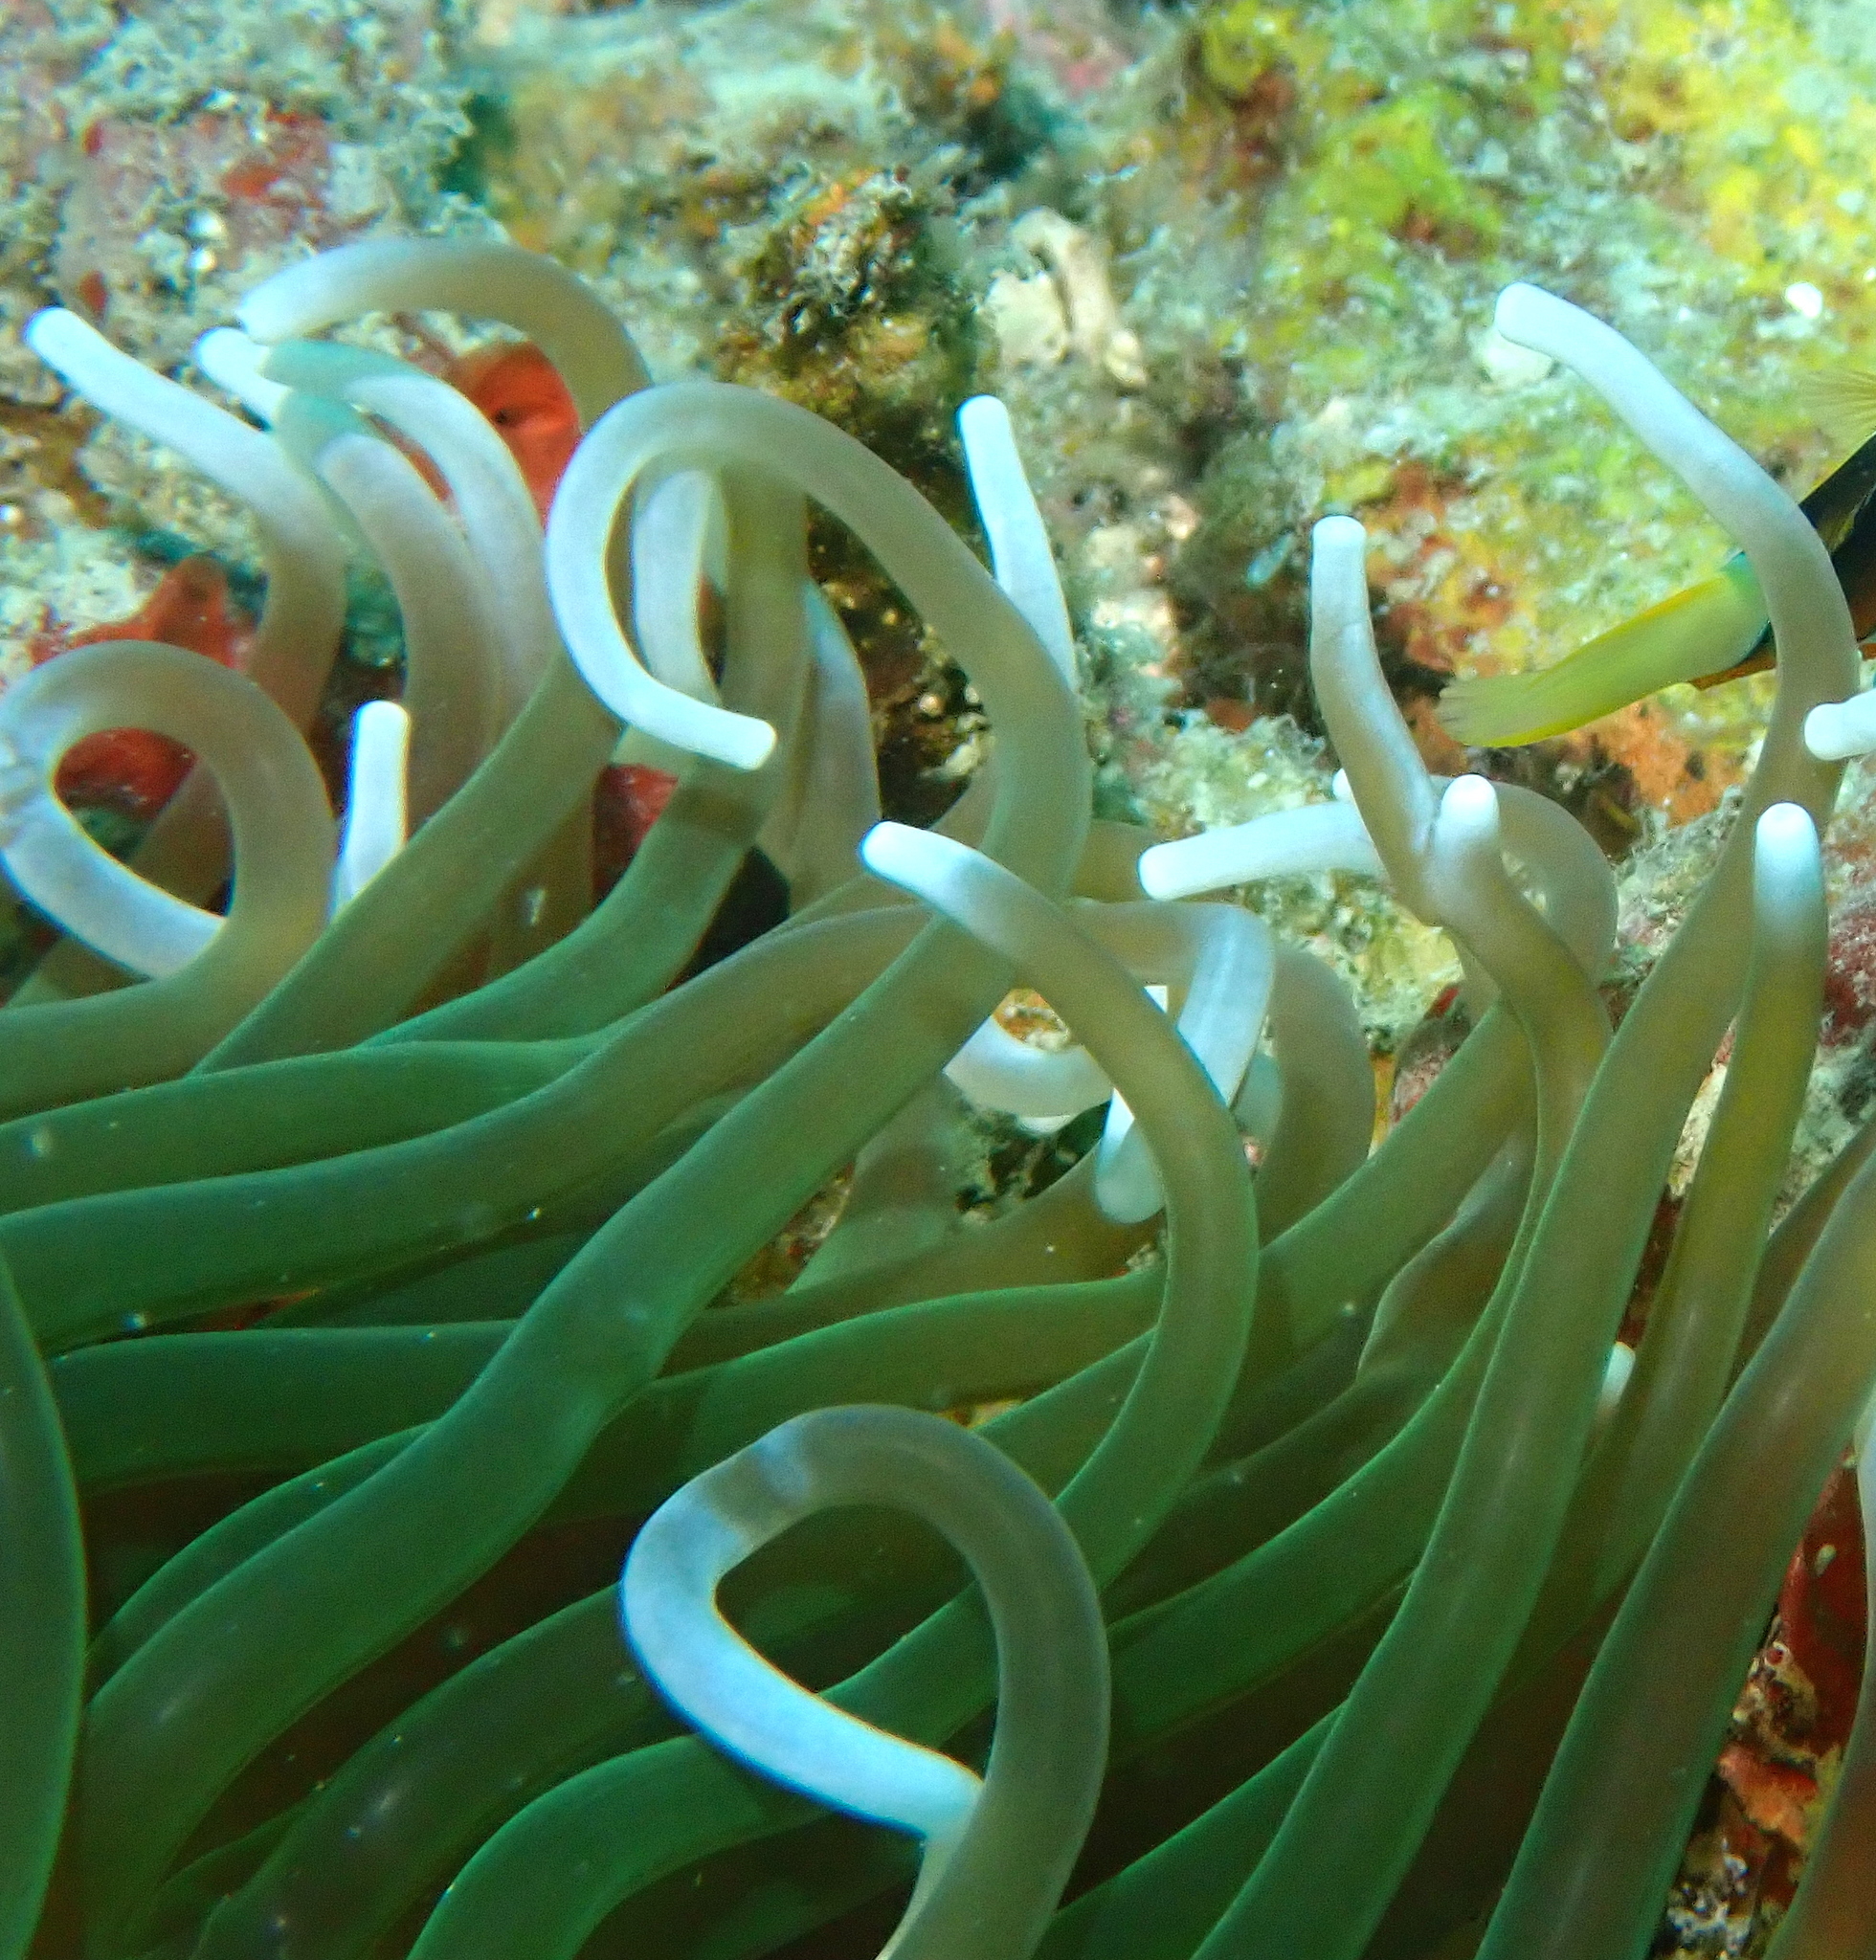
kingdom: Animalia
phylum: Cnidaria
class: Anthozoa
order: Actiniaria
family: Heteractidae
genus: Heteractis
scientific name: Heteractis
